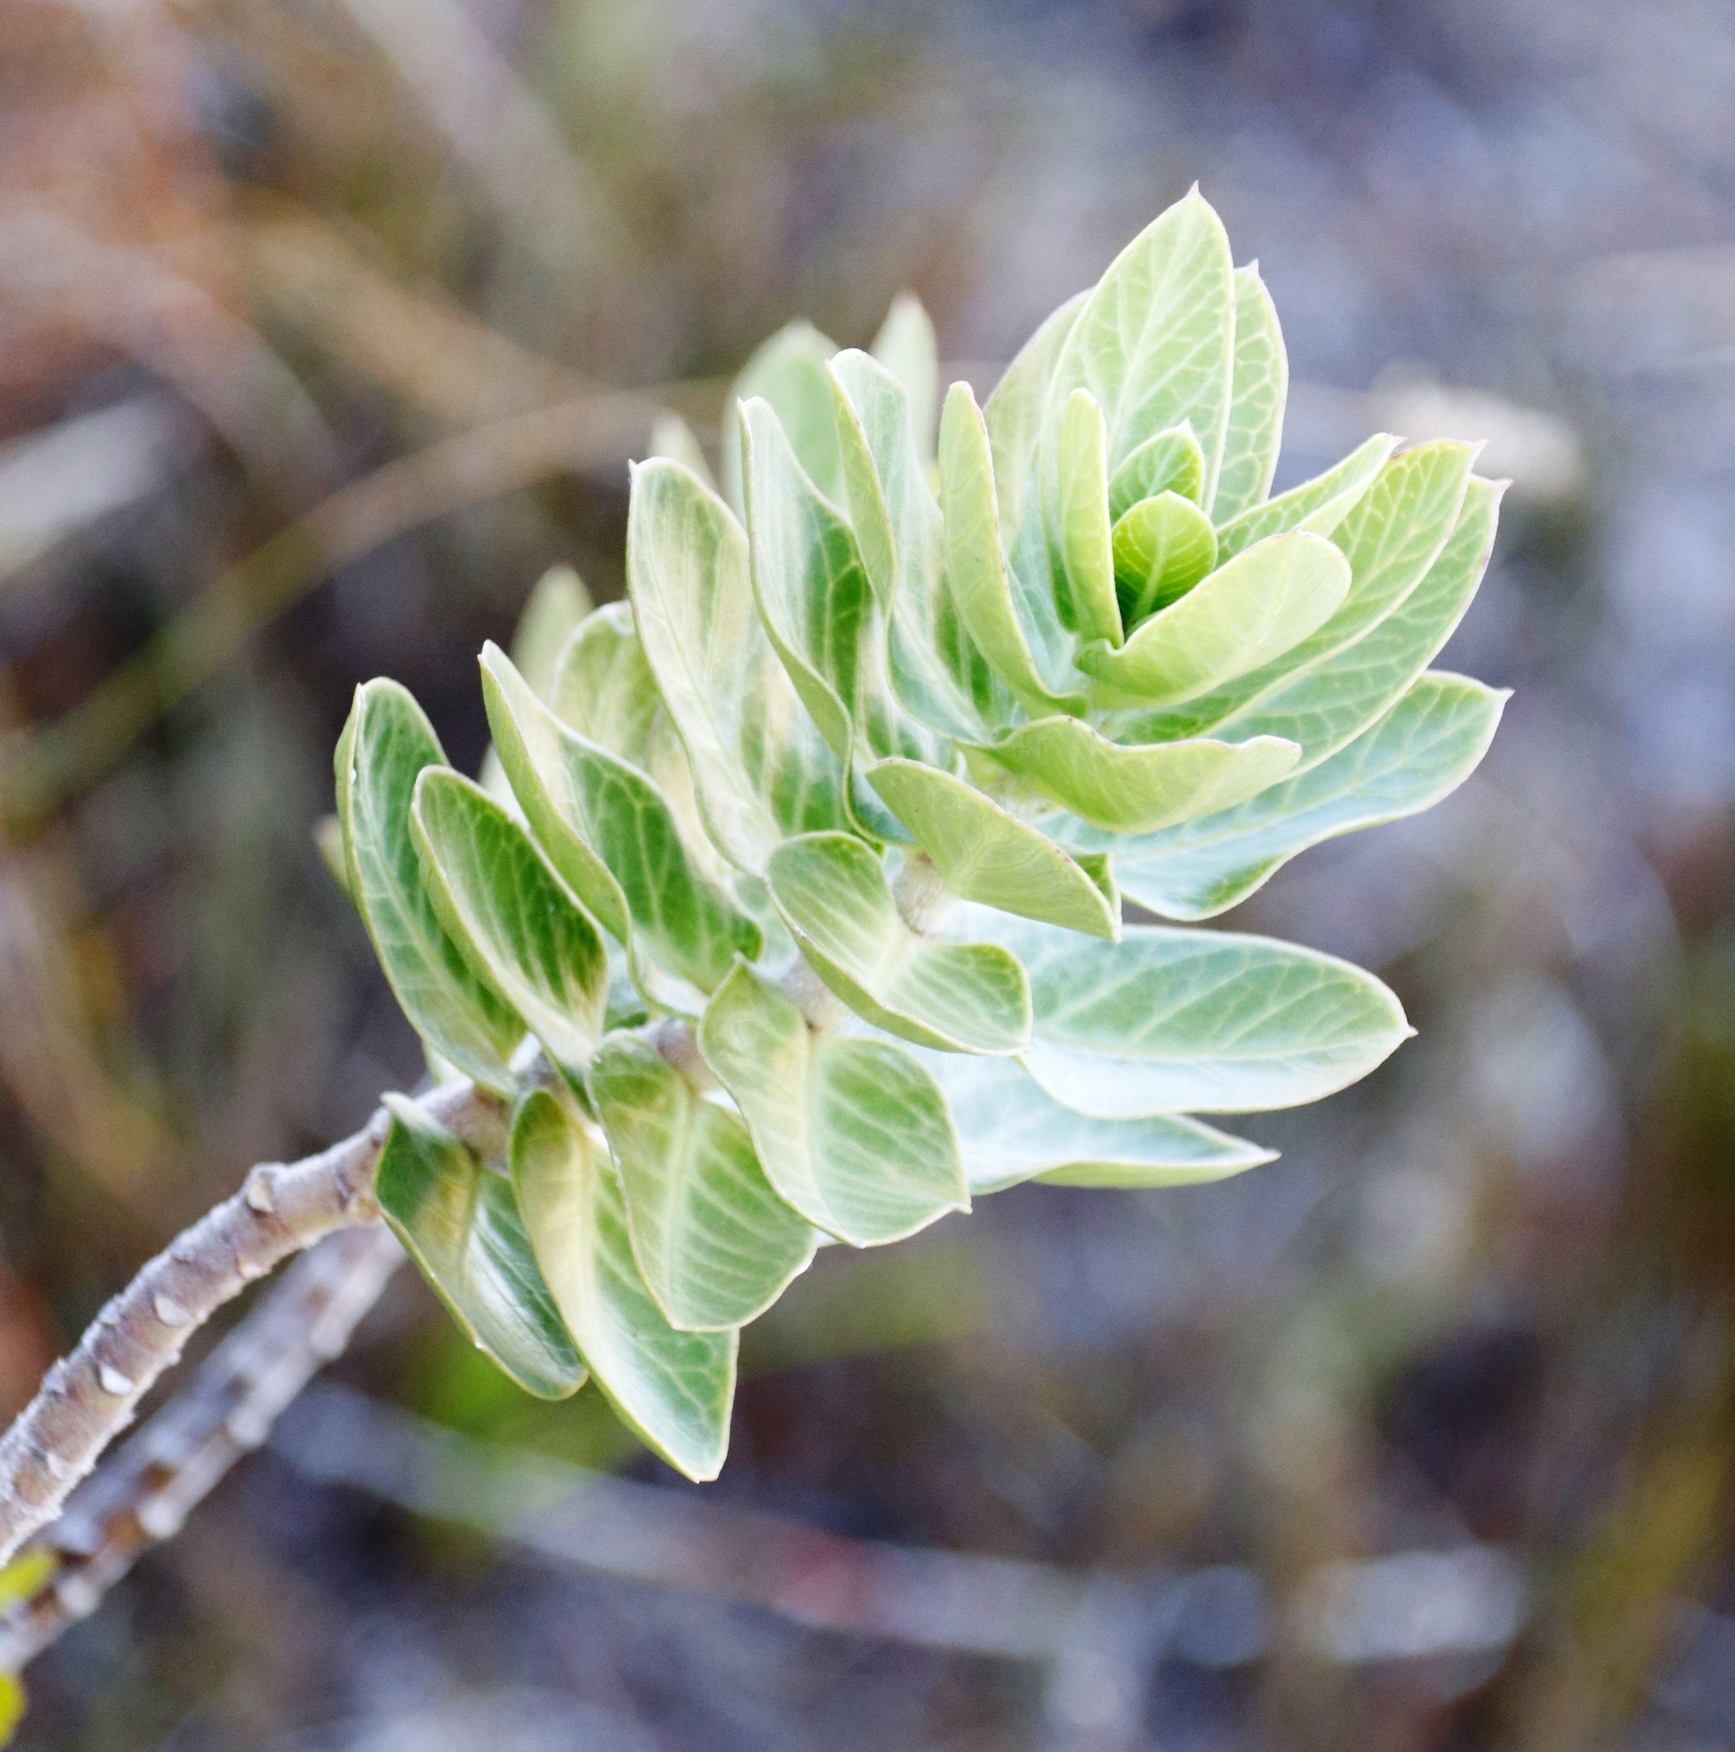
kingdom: Plantae
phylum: Tracheophyta
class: Magnoliopsida
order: Gentianales
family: Apocynaceae
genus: Gomphocarpus
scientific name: Gomphocarpus cancellatus
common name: Wild cotton
